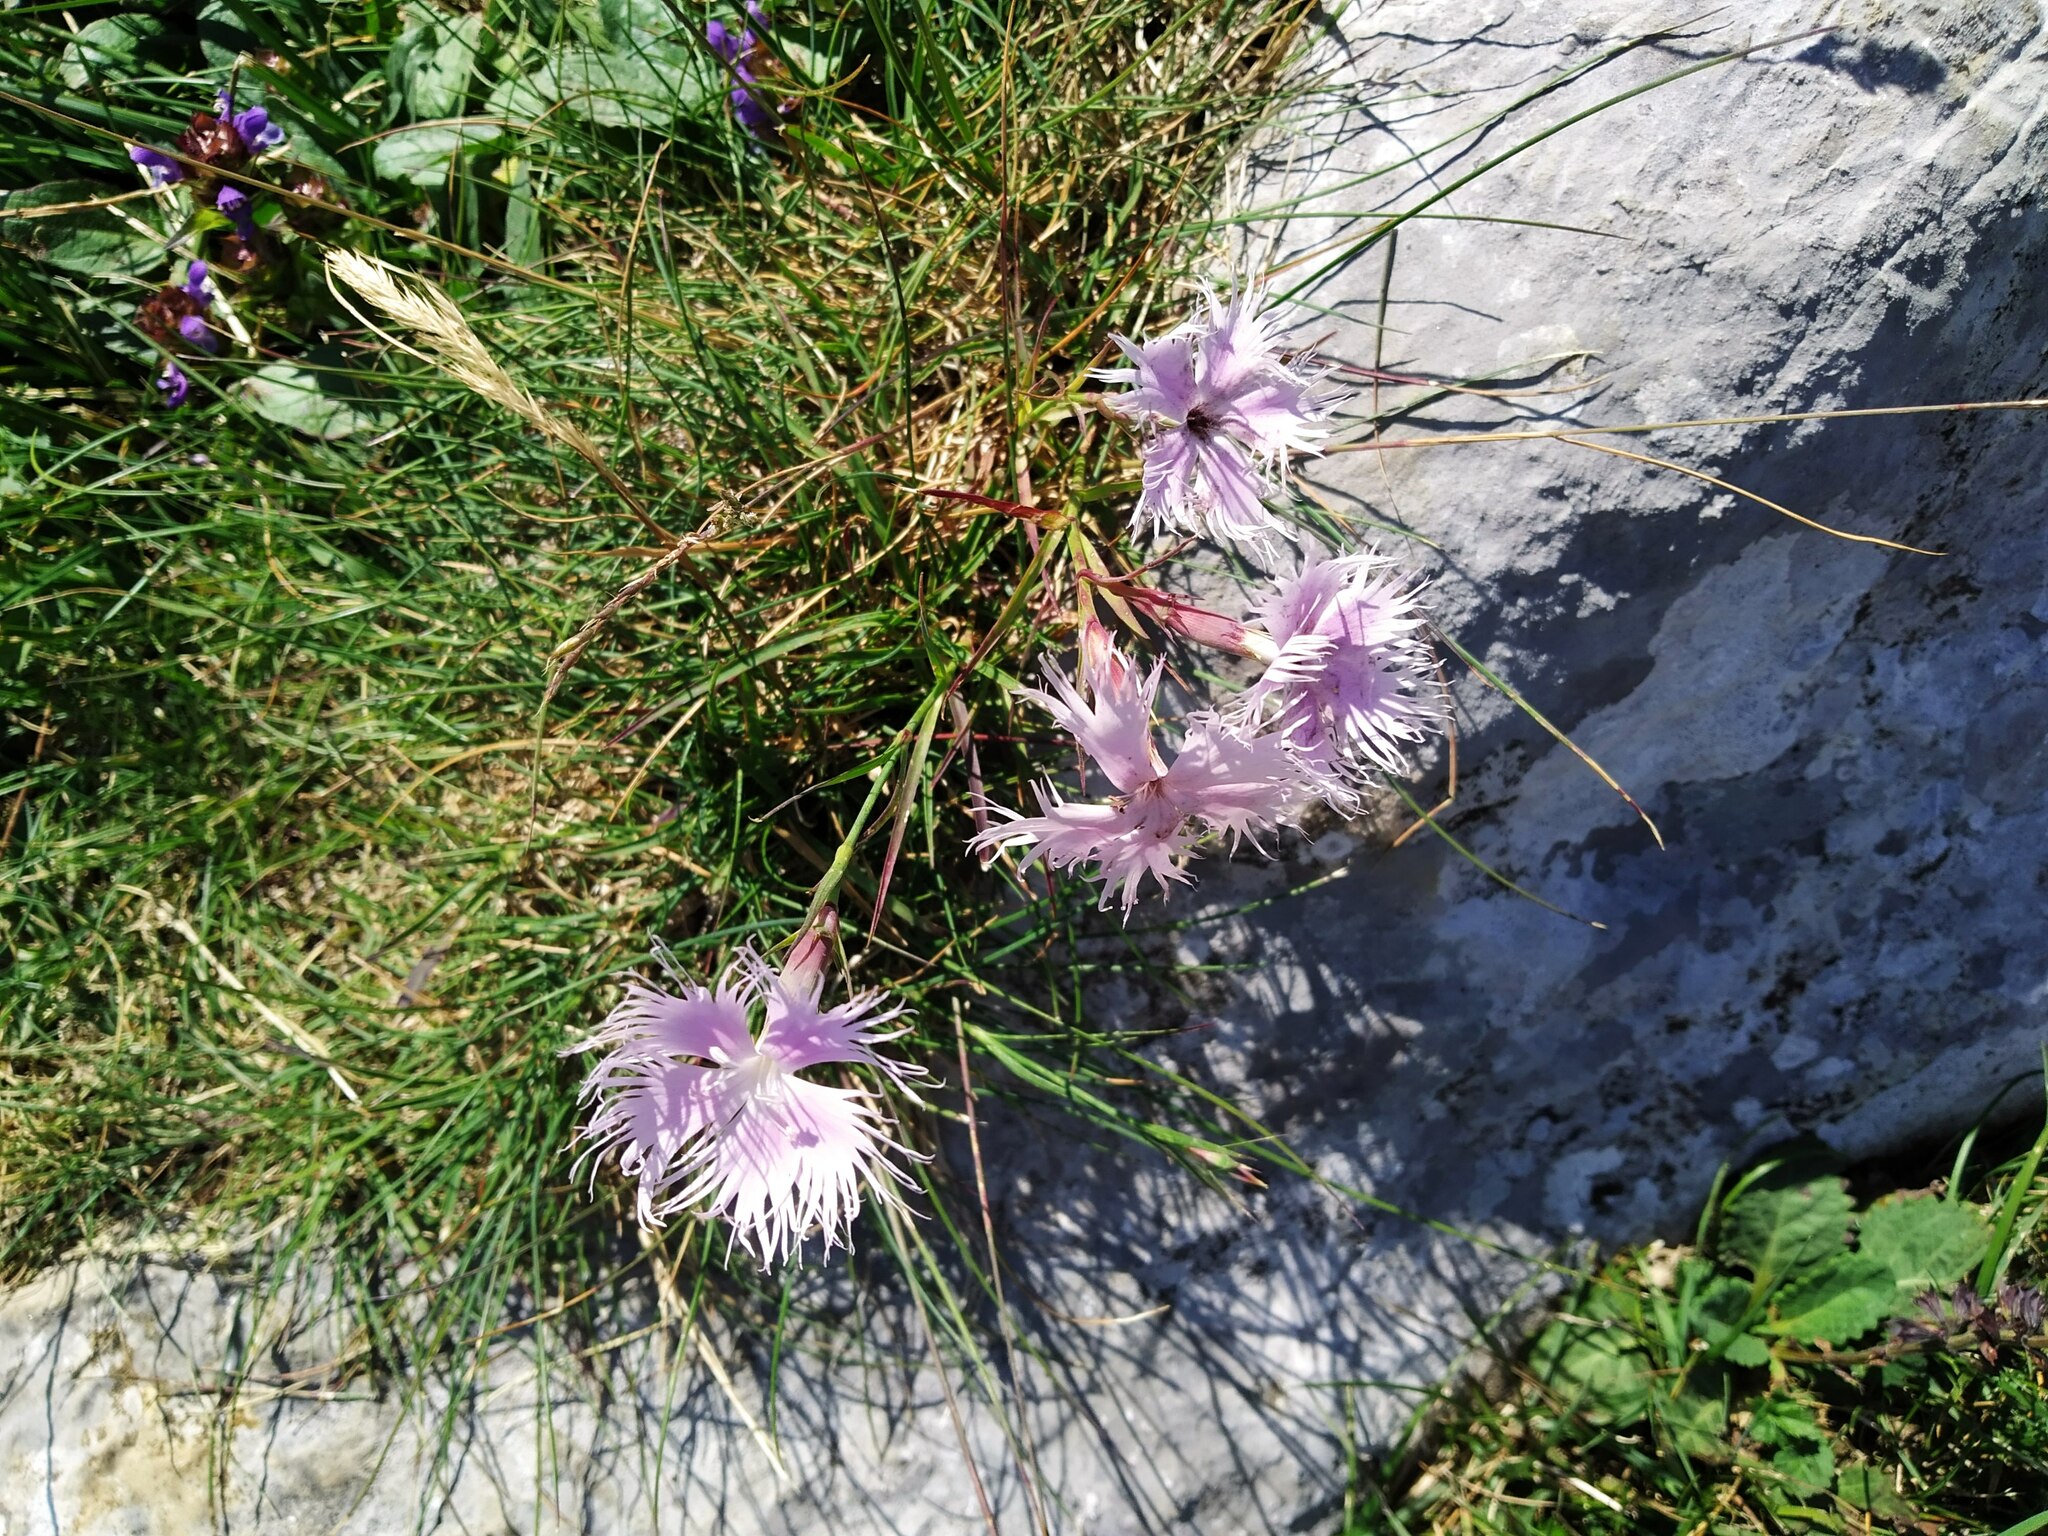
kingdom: Plantae
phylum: Tracheophyta
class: Magnoliopsida
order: Caryophyllales
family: Caryophyllaceae
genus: Dianthus
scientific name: Dianthus hyssopifolius
